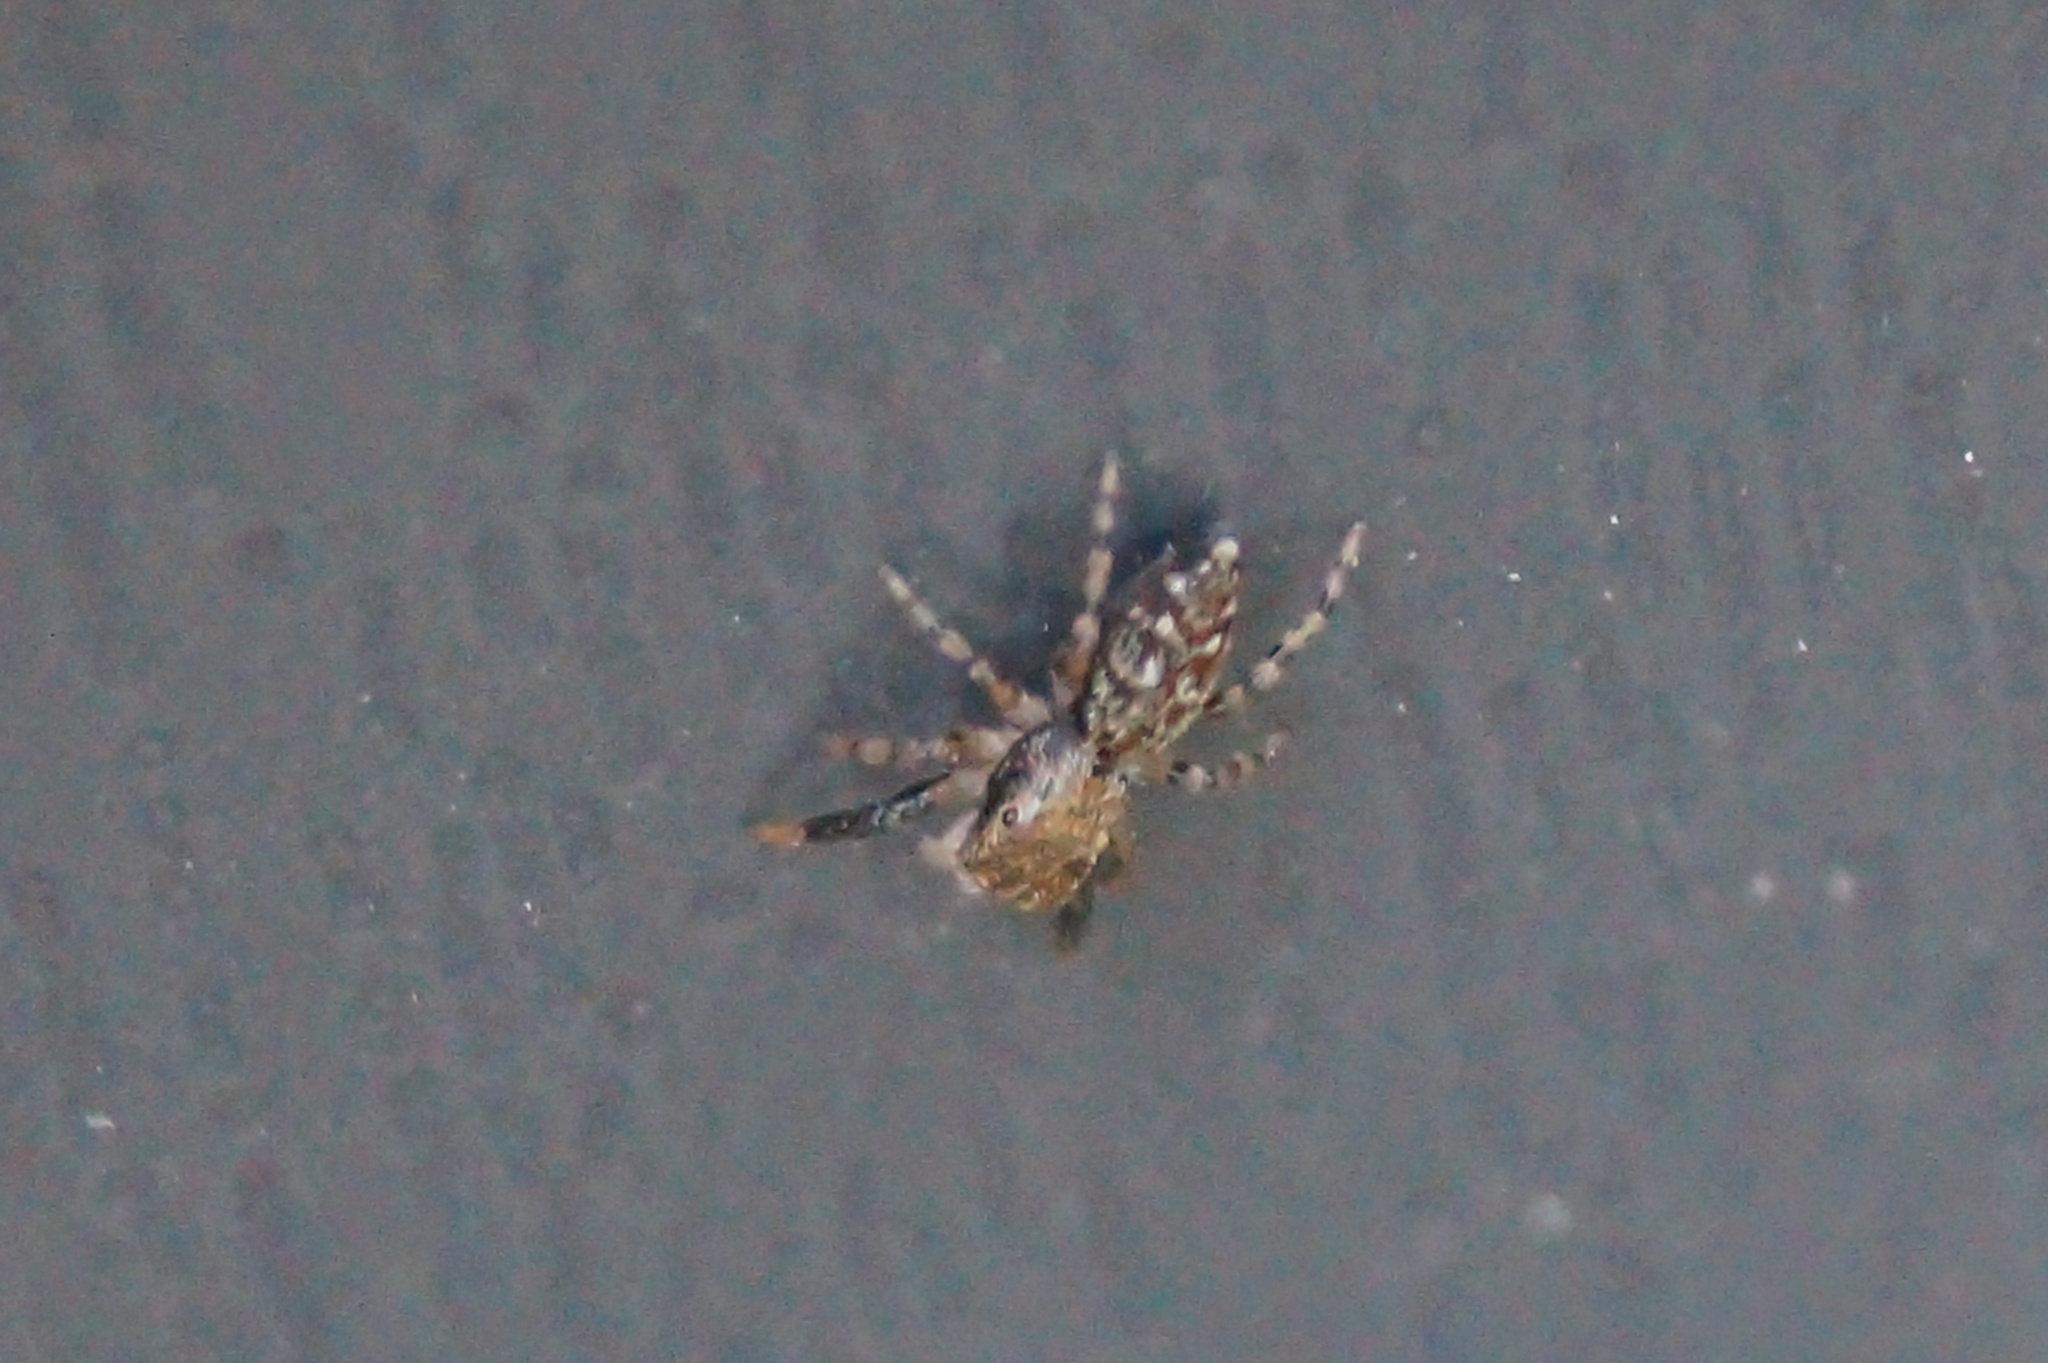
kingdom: Animalia
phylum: Arthropoda
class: Arachnida
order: Araneae
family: Salticidae
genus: Marpissa
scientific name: Marpissa muscosa
